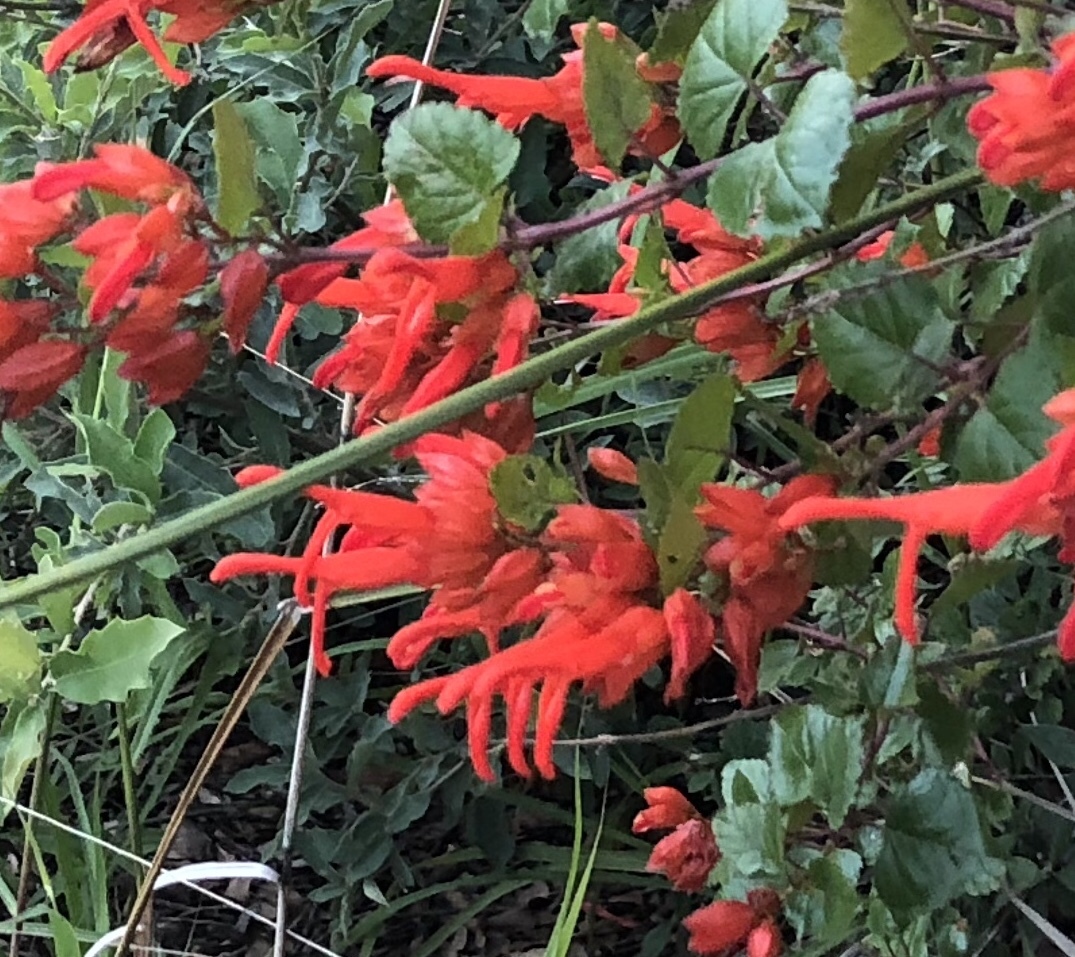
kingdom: Plantae
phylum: Tracheophyta
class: Magnoliopsida
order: Lamiales
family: Lamiaceae
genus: Salvia
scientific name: Salvia regla
